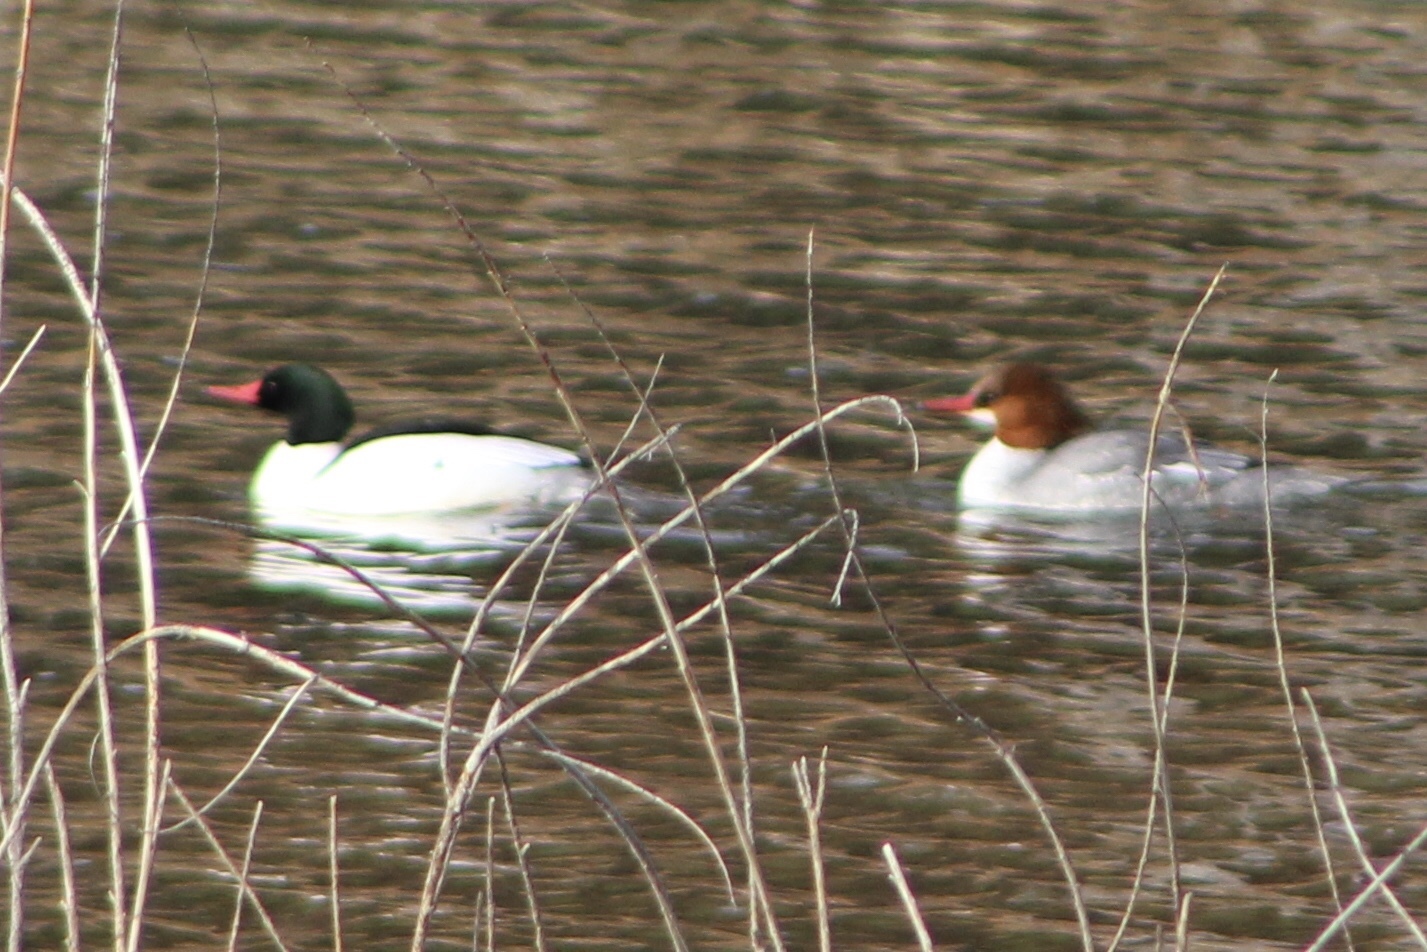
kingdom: Animalia
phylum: Chordata
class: Aves
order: Anseriformes
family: Anatidae
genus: Mergus
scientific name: Mergus merganser
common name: Common merganser
